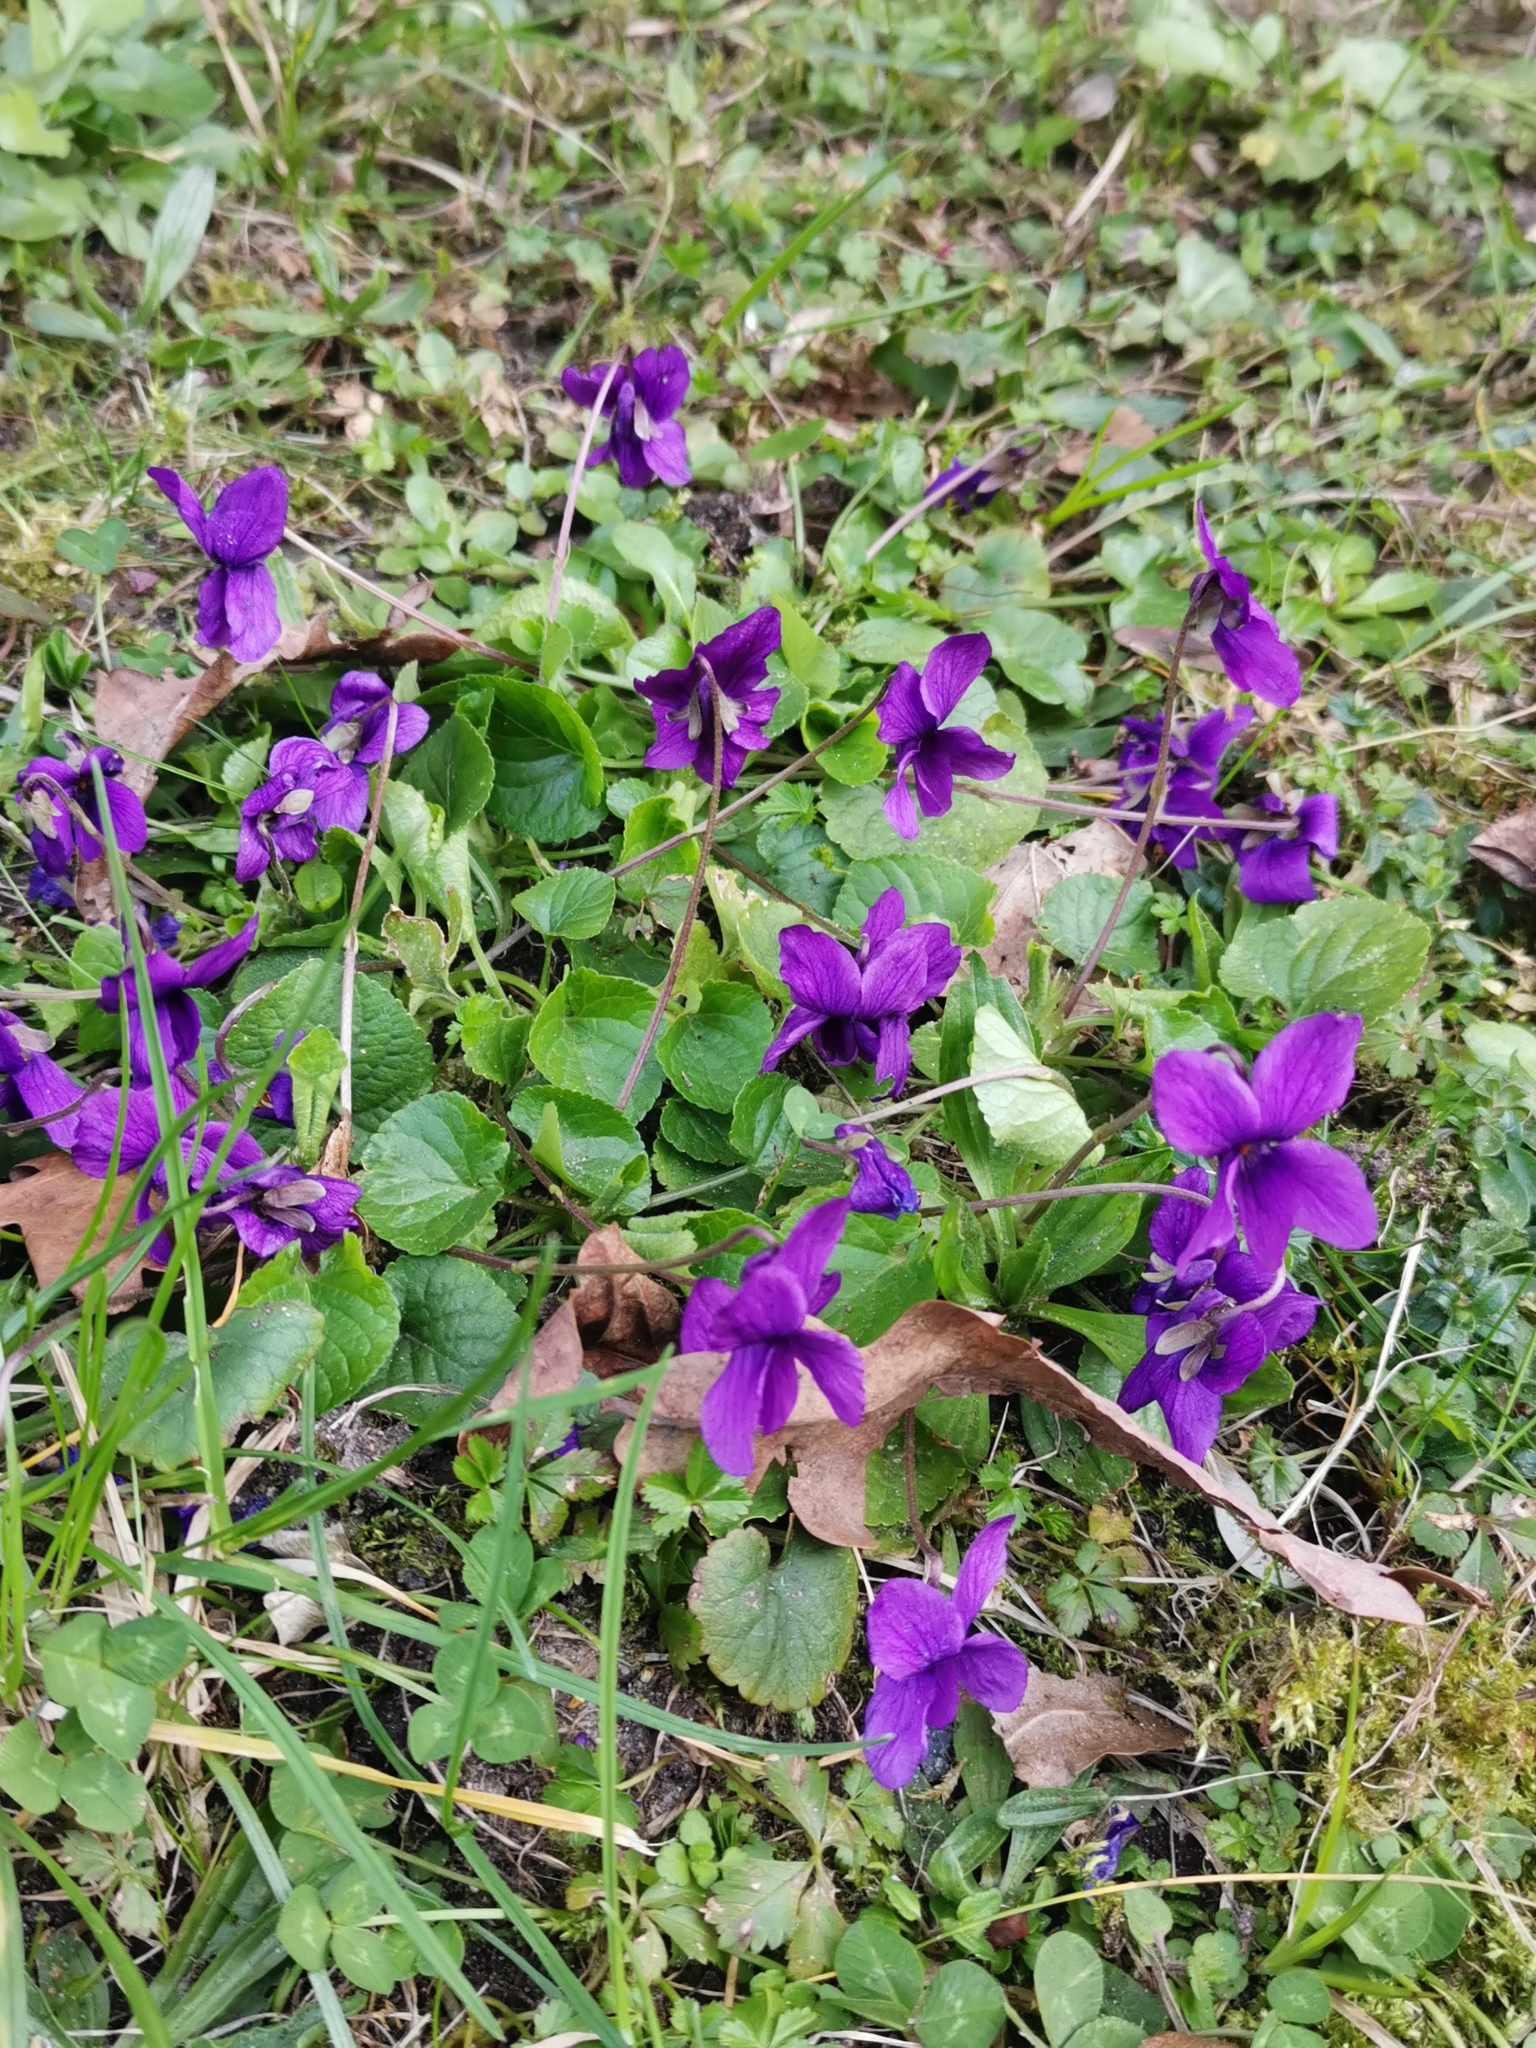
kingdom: Plantae
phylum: Tracheophyta
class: Magnoliopsida
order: Malpighiales
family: Violaceae
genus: Viola
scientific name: Viola odorata
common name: Sweet violet
